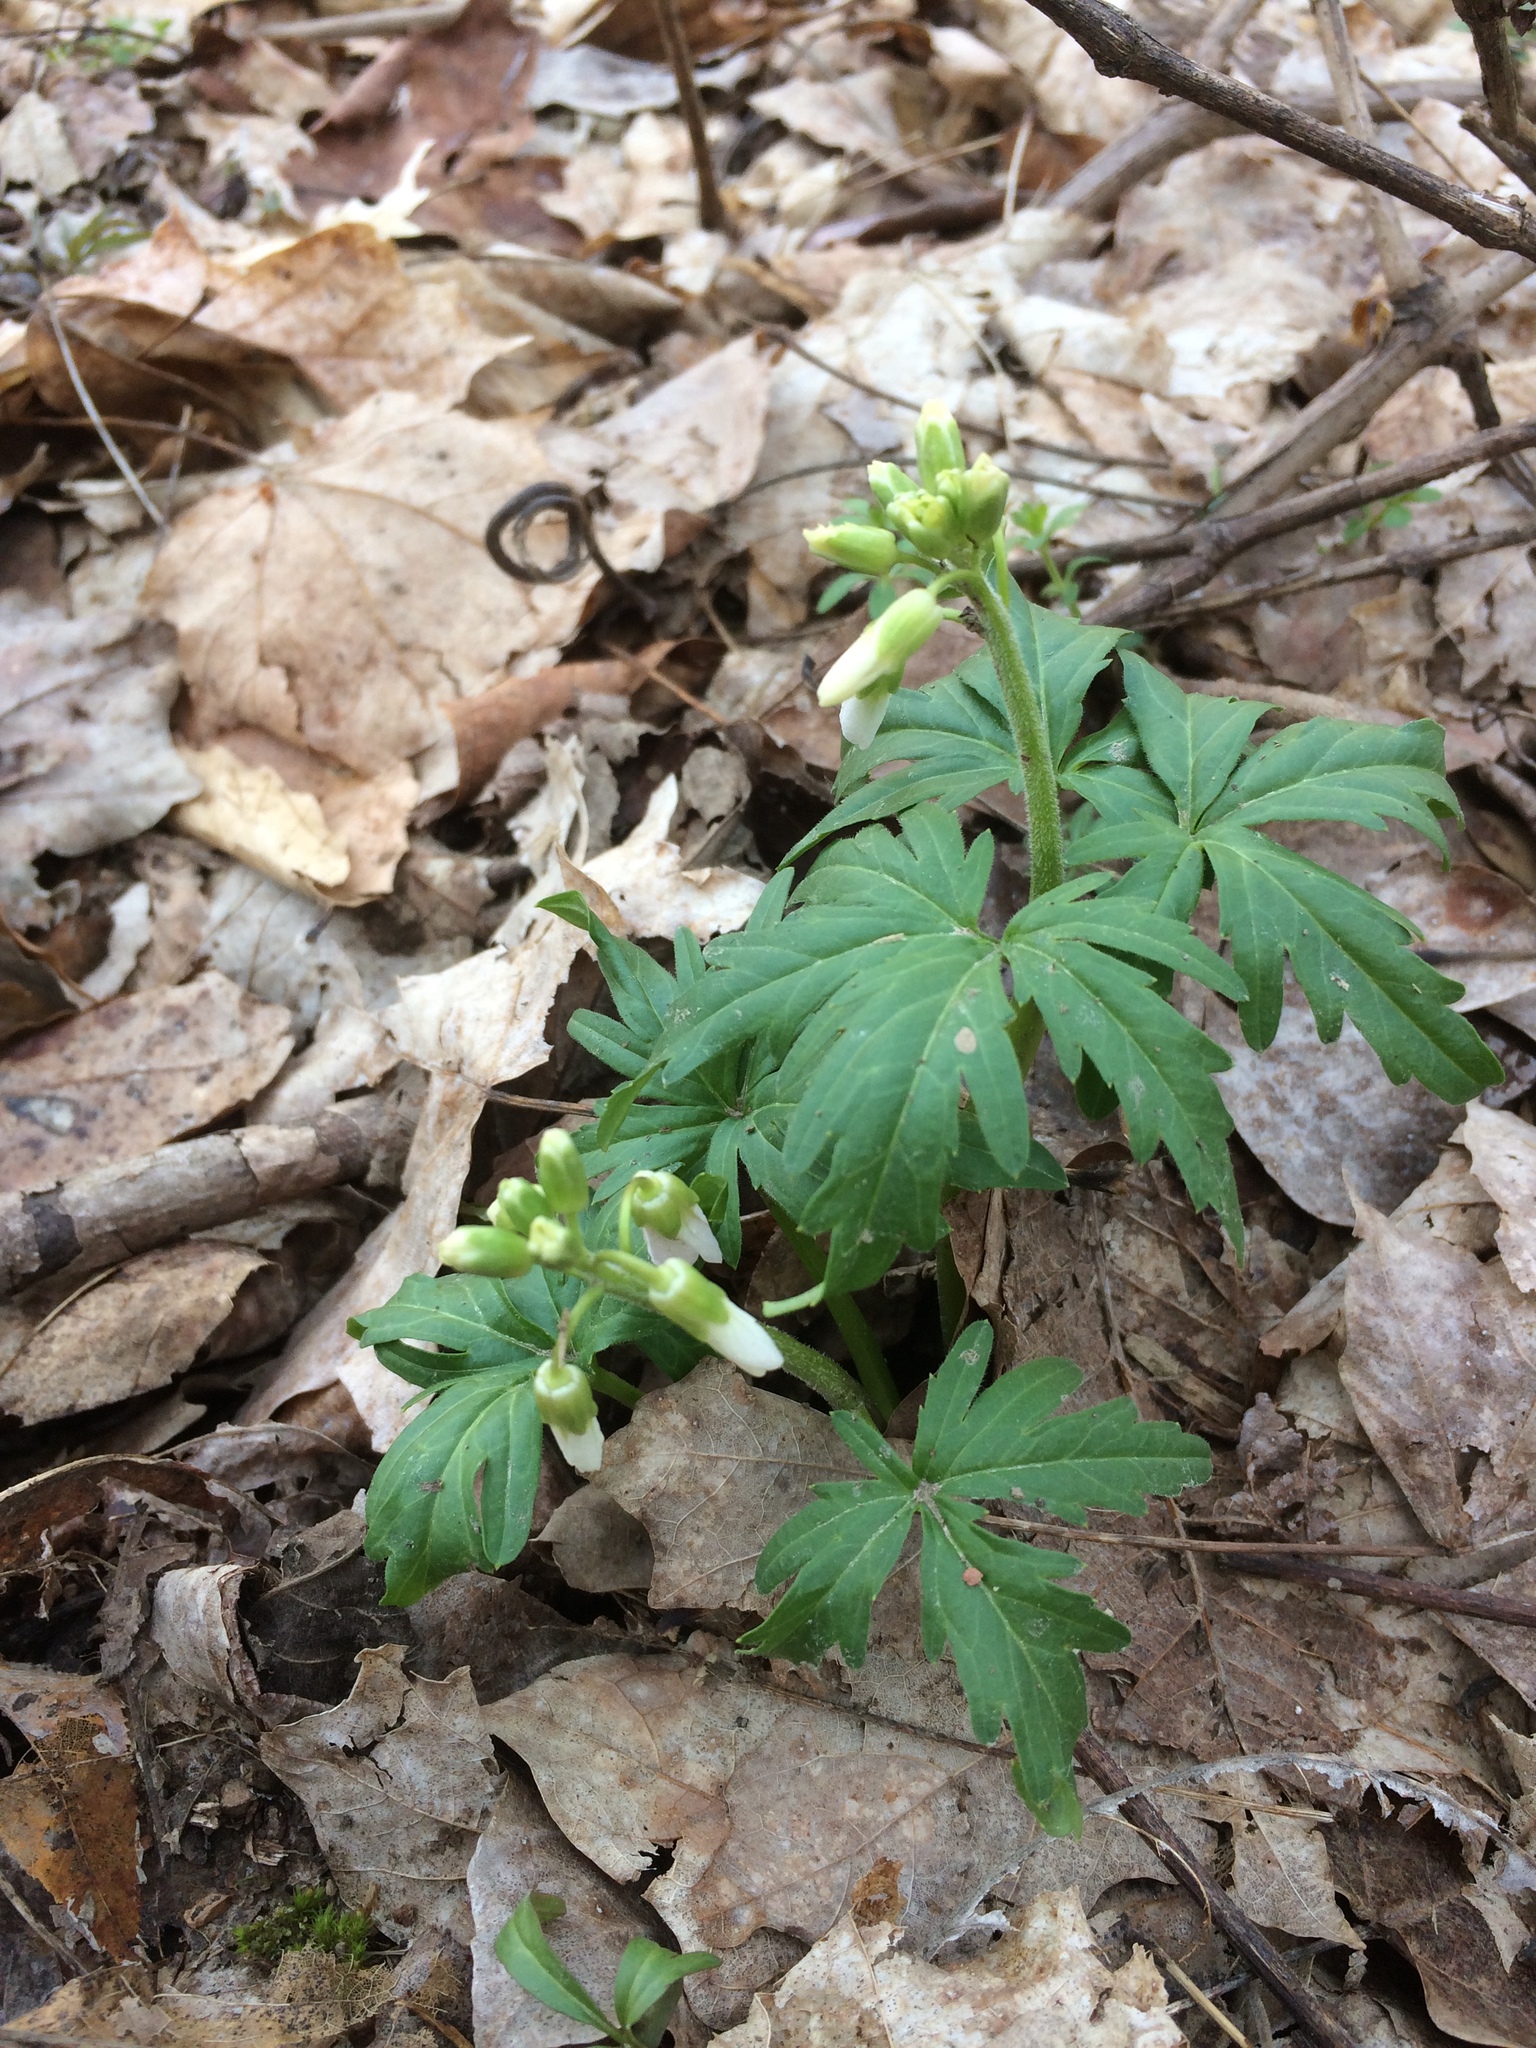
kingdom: Plantae
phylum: Tracheophyta
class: Magnoliopsida
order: Brassicales
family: Brassicaceae
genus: Cardamine
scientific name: Cardamine concatenata
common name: Cut-leaf toothcup
